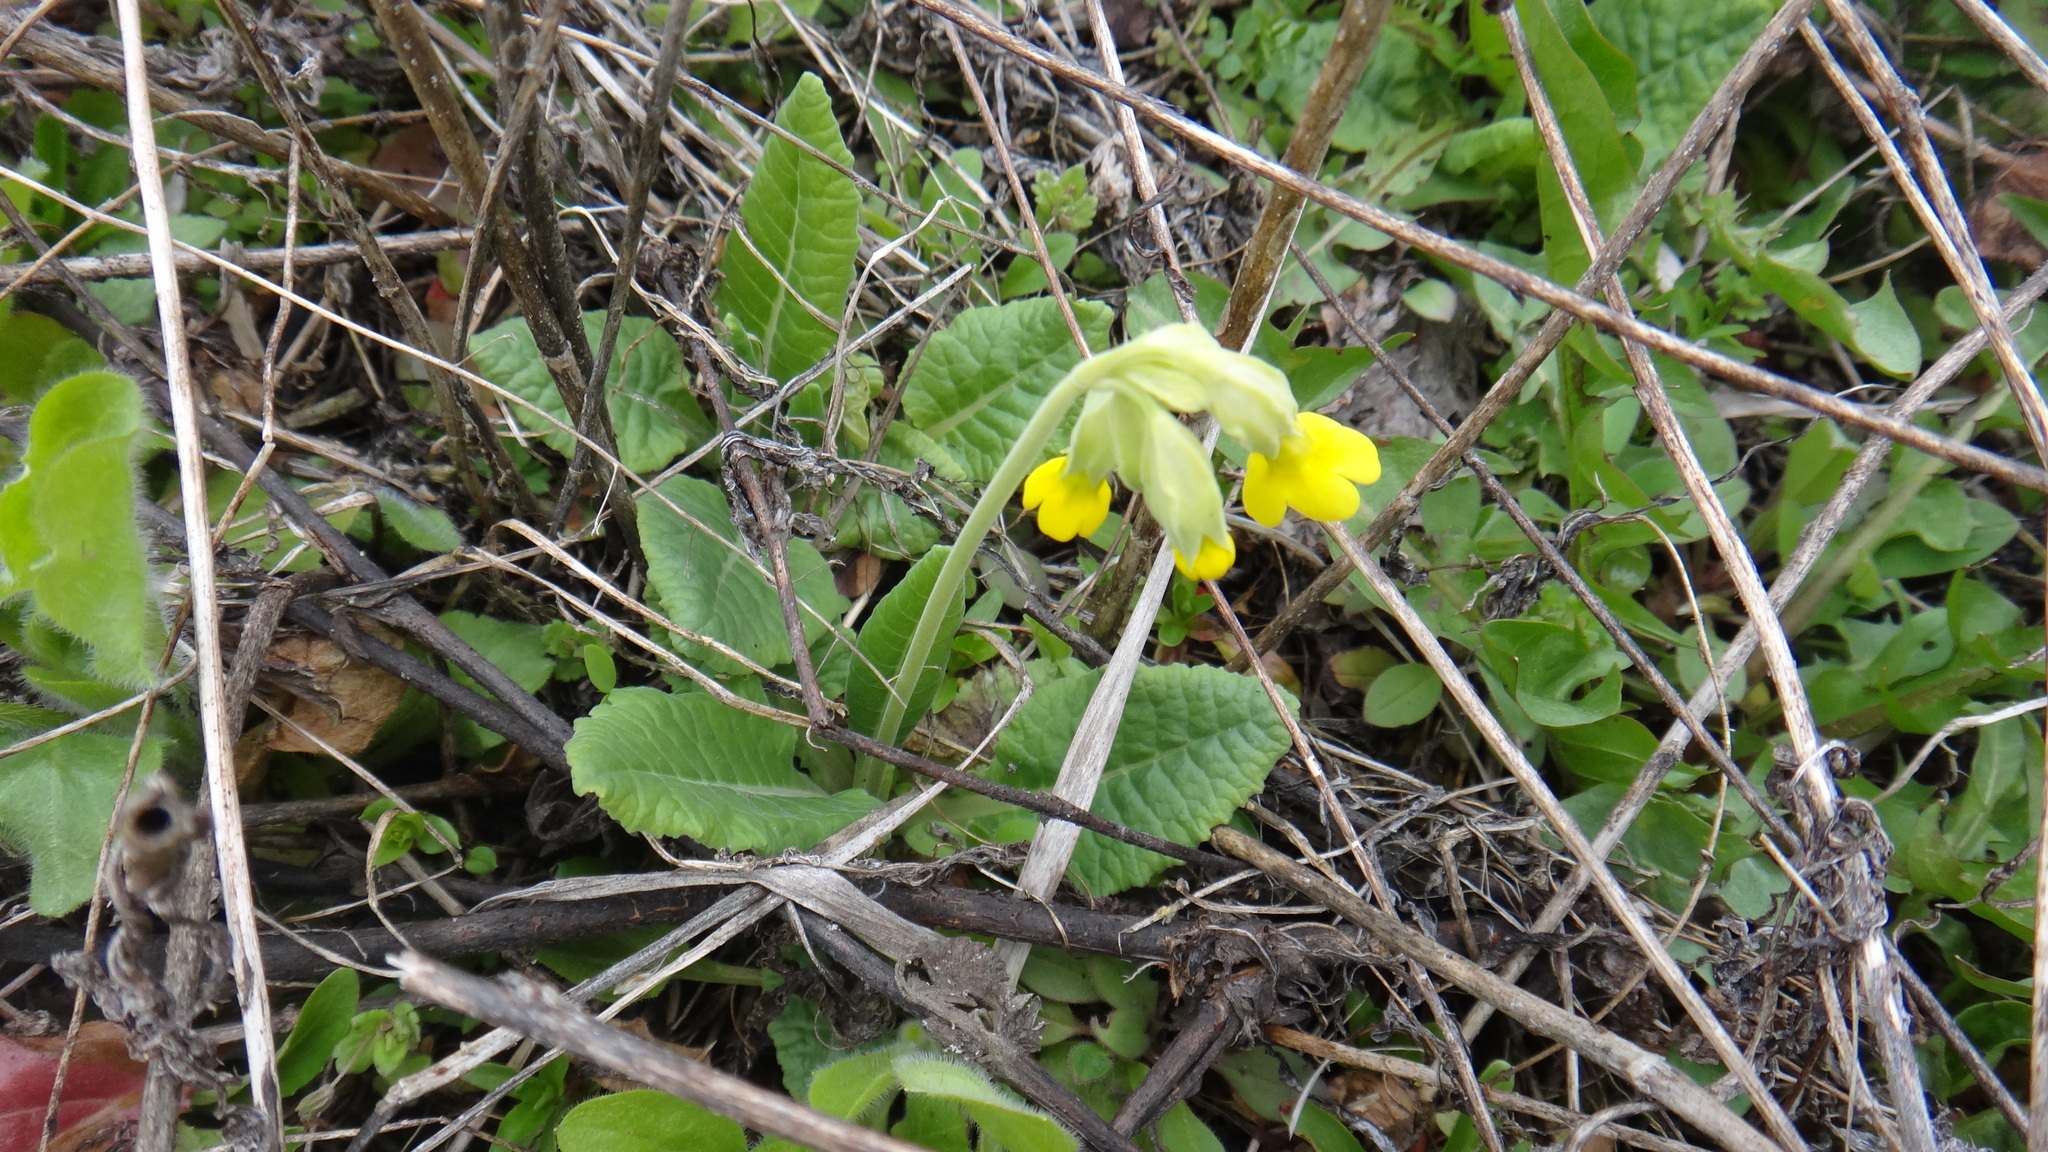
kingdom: Plantae
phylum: Tracheophyta
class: Magnoliopsida
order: Ericales
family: Primulaceae
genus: Primula
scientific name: Primula veris
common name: Cowslip
